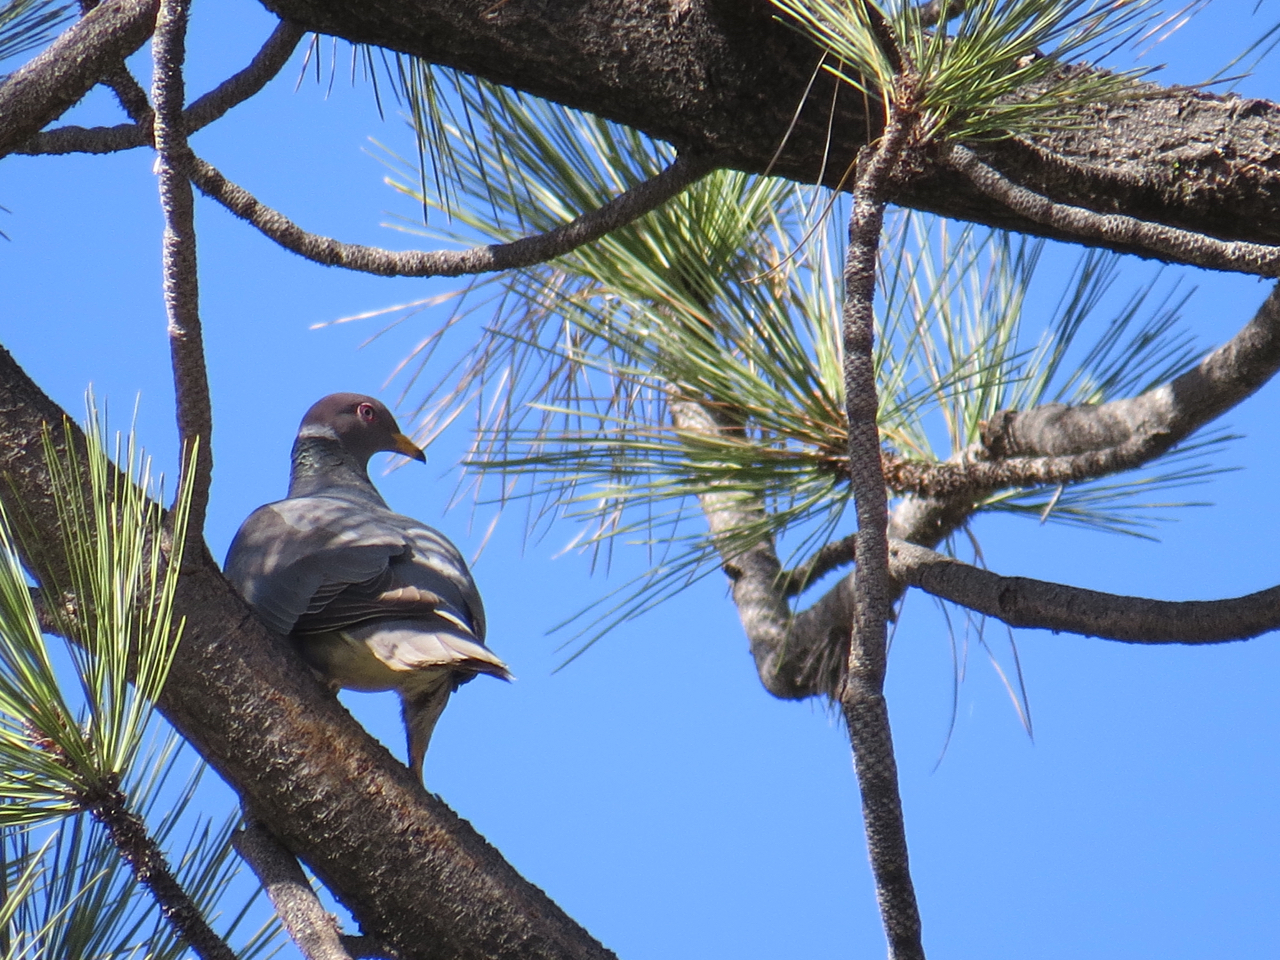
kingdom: Animalia
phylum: Chordata
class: Aves
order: Columbiformes
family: Columbidae
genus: Patagioenas
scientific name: Patagioenas fasciata
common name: Band-tailed pigeon
